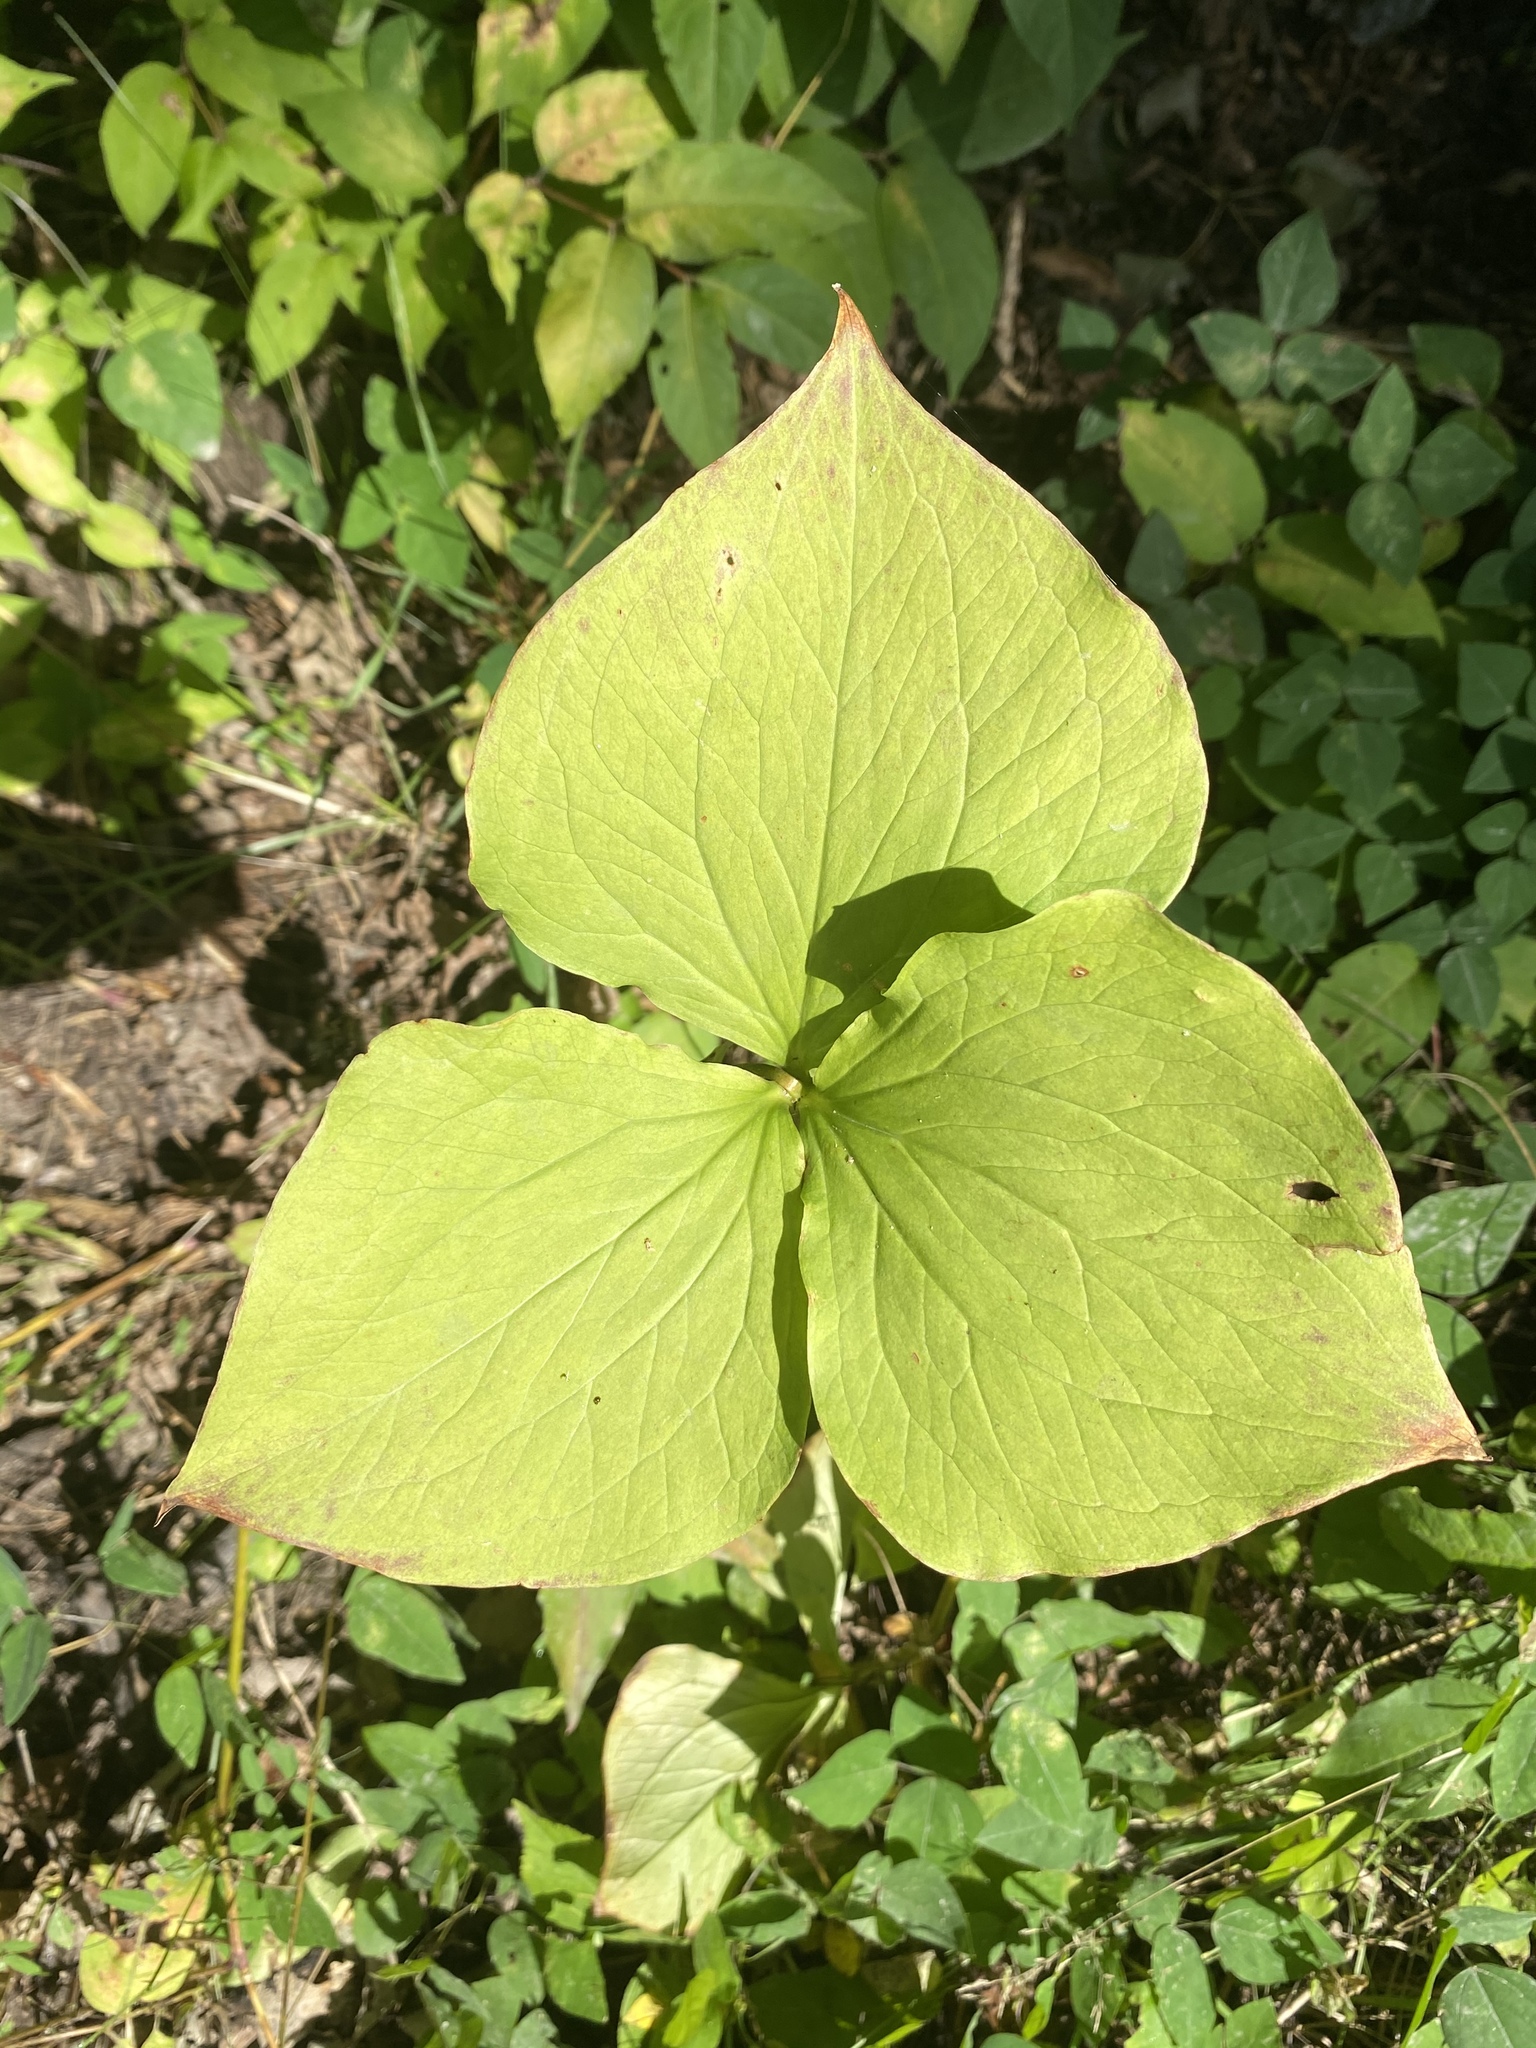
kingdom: Plantae
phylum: Tracheophyta
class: Liliopsida
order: Liliales
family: Melanthiaceae
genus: Trillium
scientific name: Trillium cernuum
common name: Nodding trillium
